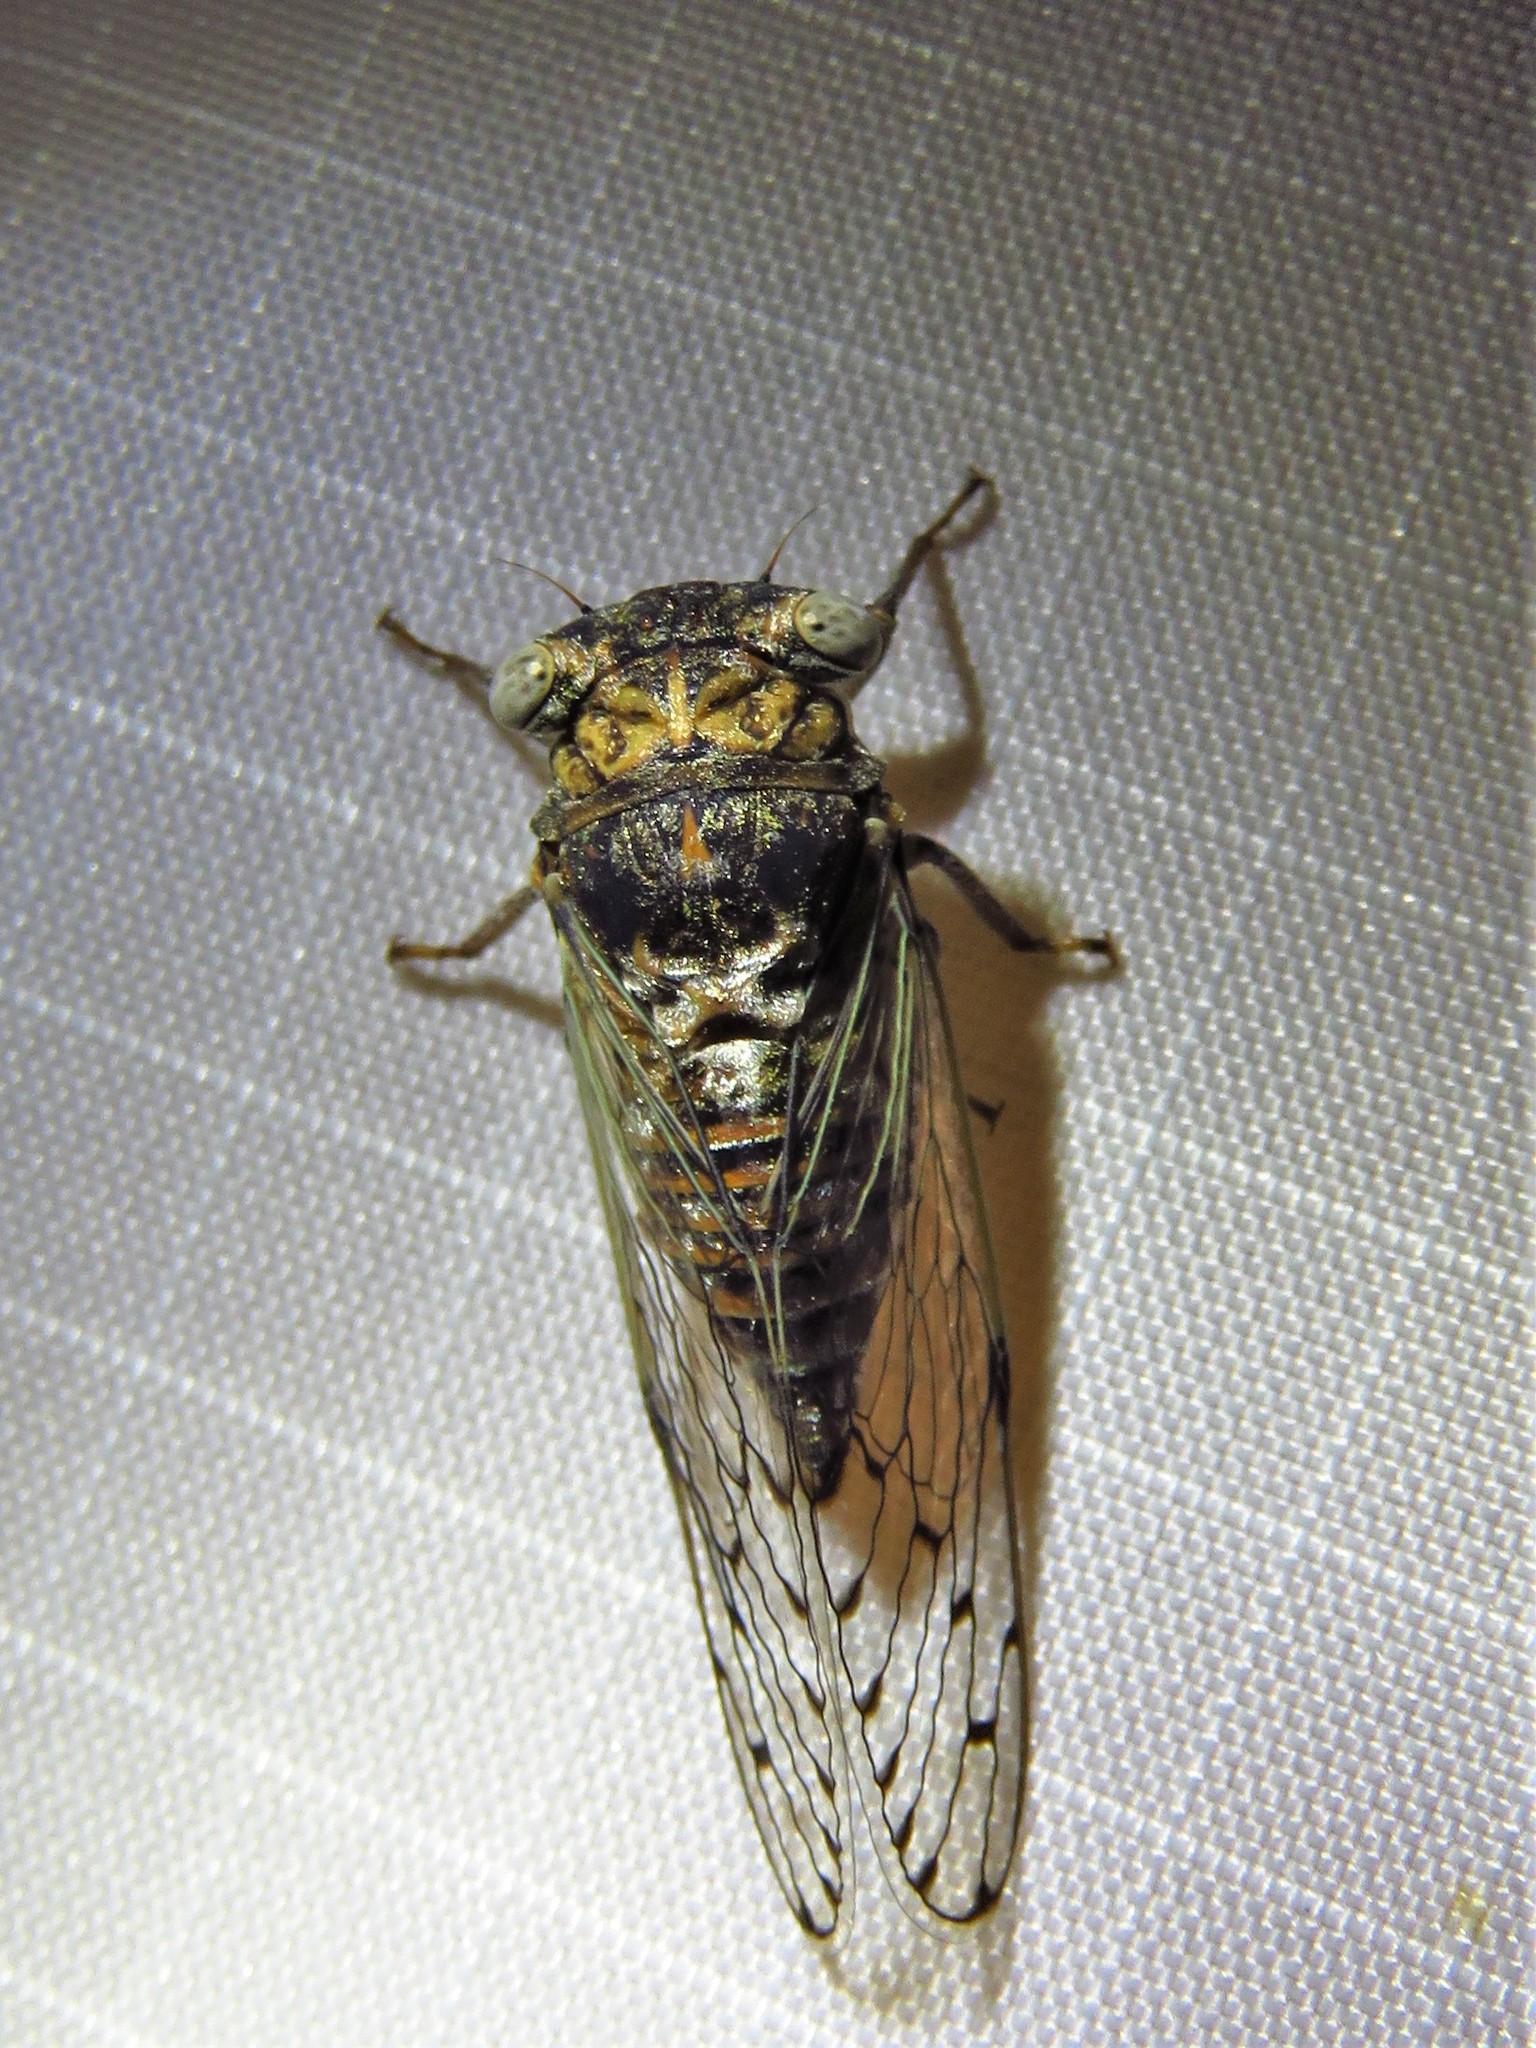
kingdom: Animalia
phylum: Arthropoda
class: Insecta
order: Hemiptera
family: Cicadidae
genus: Pacarina
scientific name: Pacarina puella
